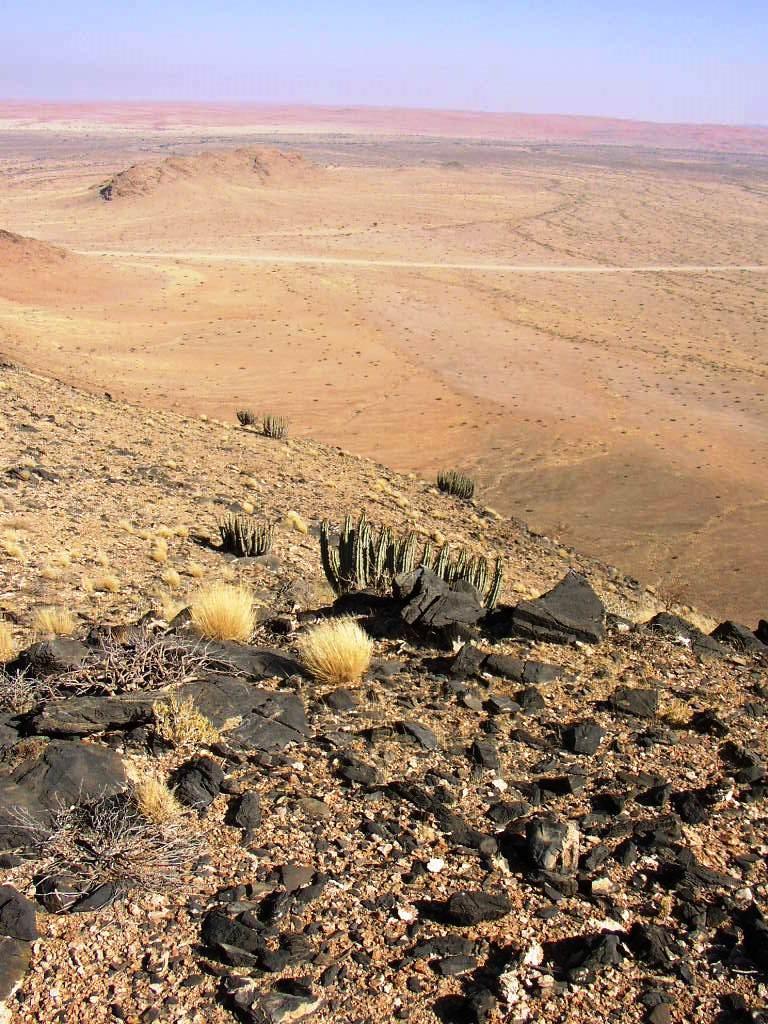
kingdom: Plantae
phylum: Tracheophyta
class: Magnoliopsida
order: Malpighiales
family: Euphorbiaceae
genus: Euphorbia
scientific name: Euphorbia virosa
